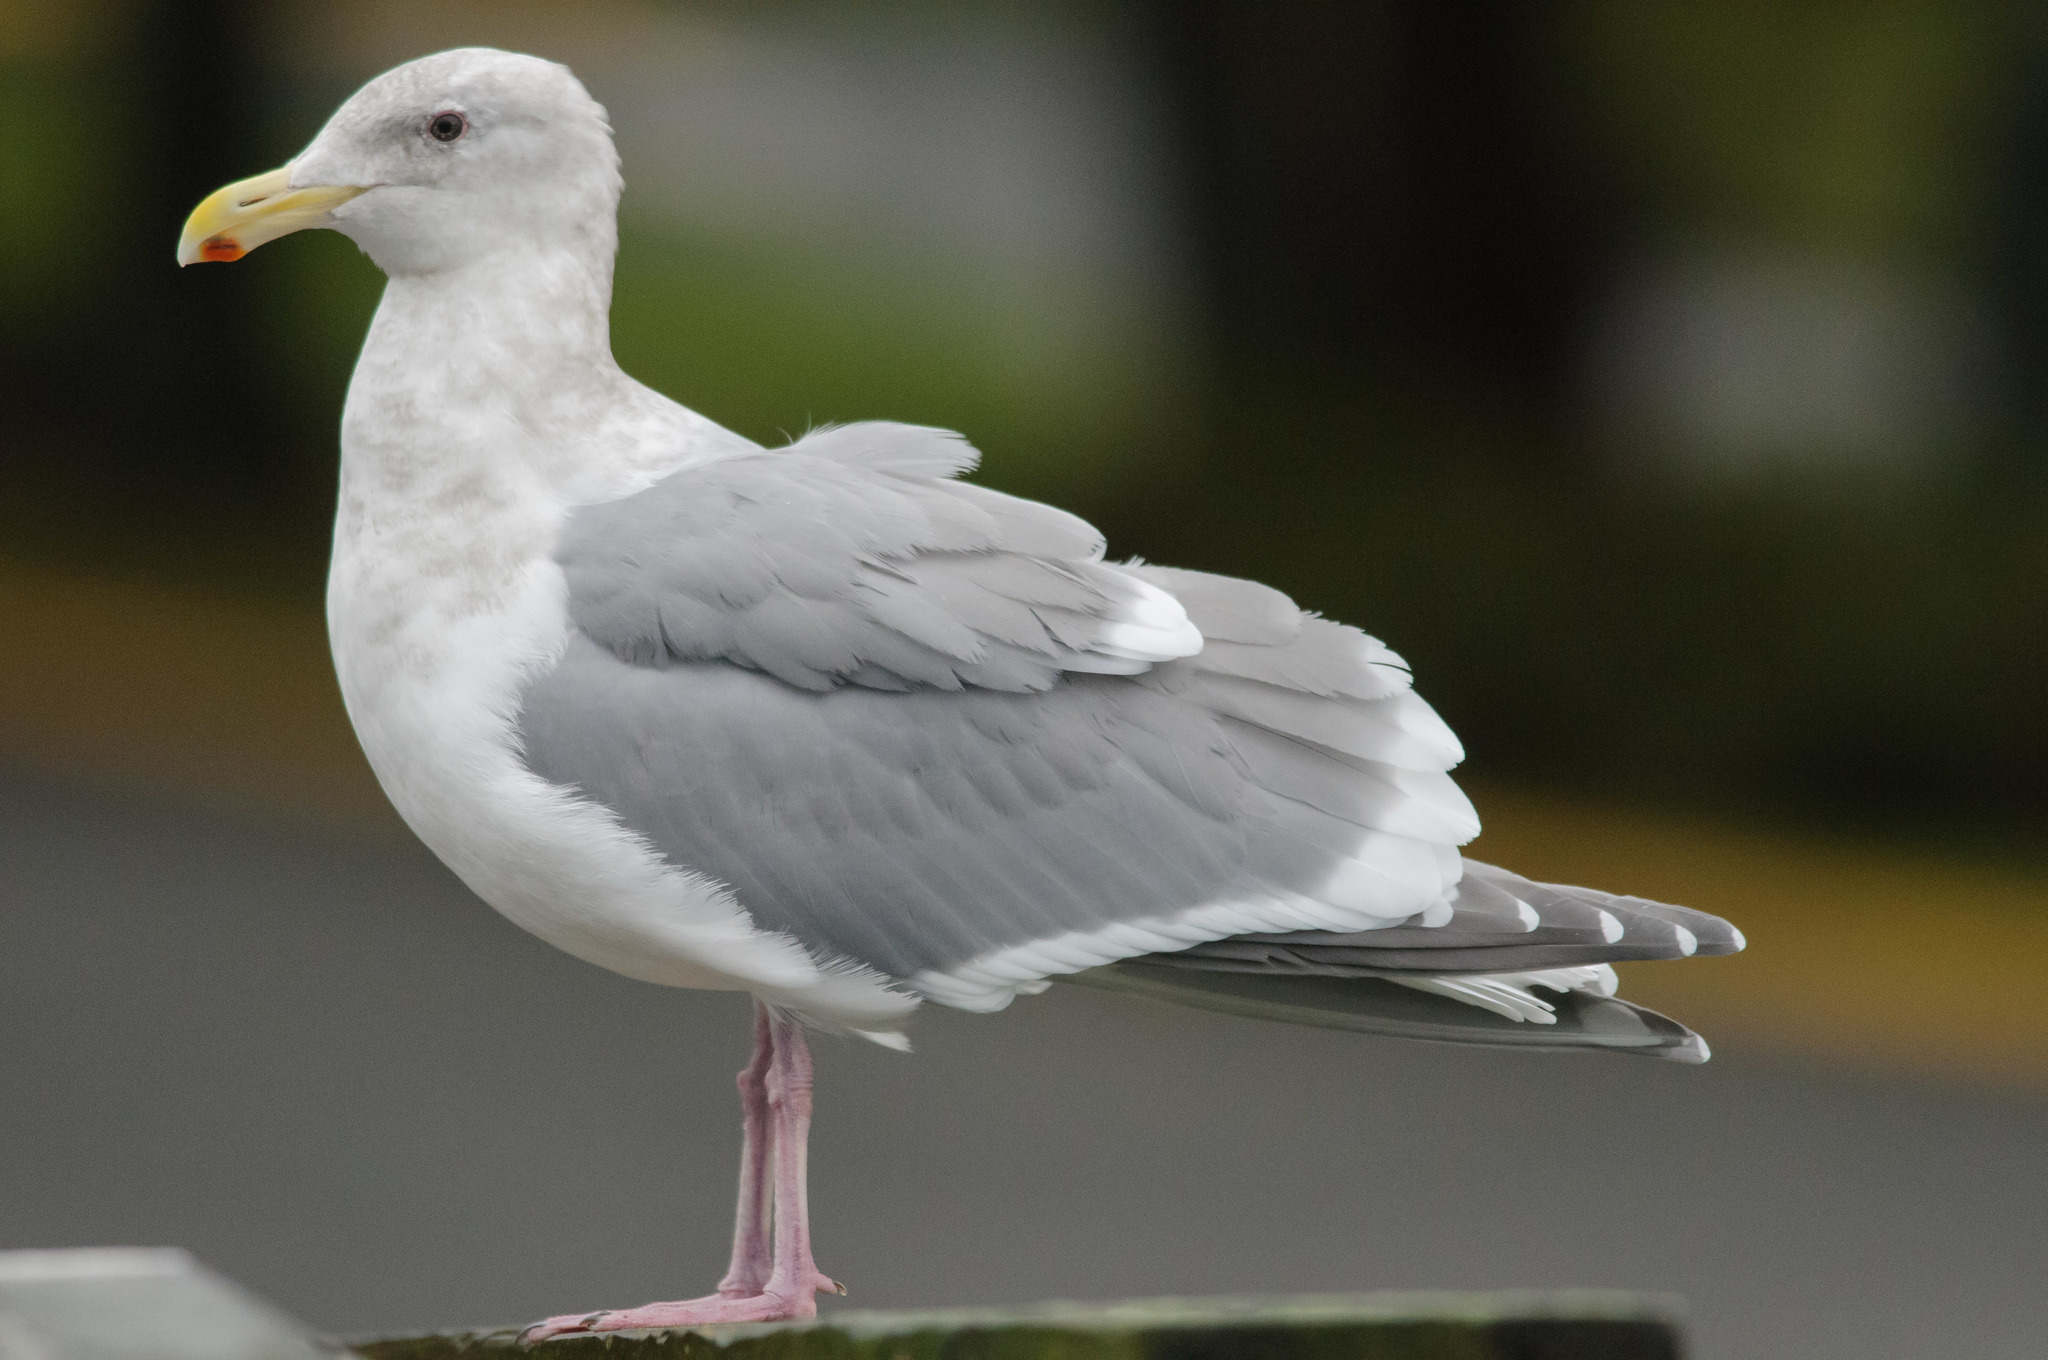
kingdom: Animalia
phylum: Chordata
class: Aves
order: Charadriiformes
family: Laridae
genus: Larus
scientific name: Larus glaucescens
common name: Glaucous-winged gull
